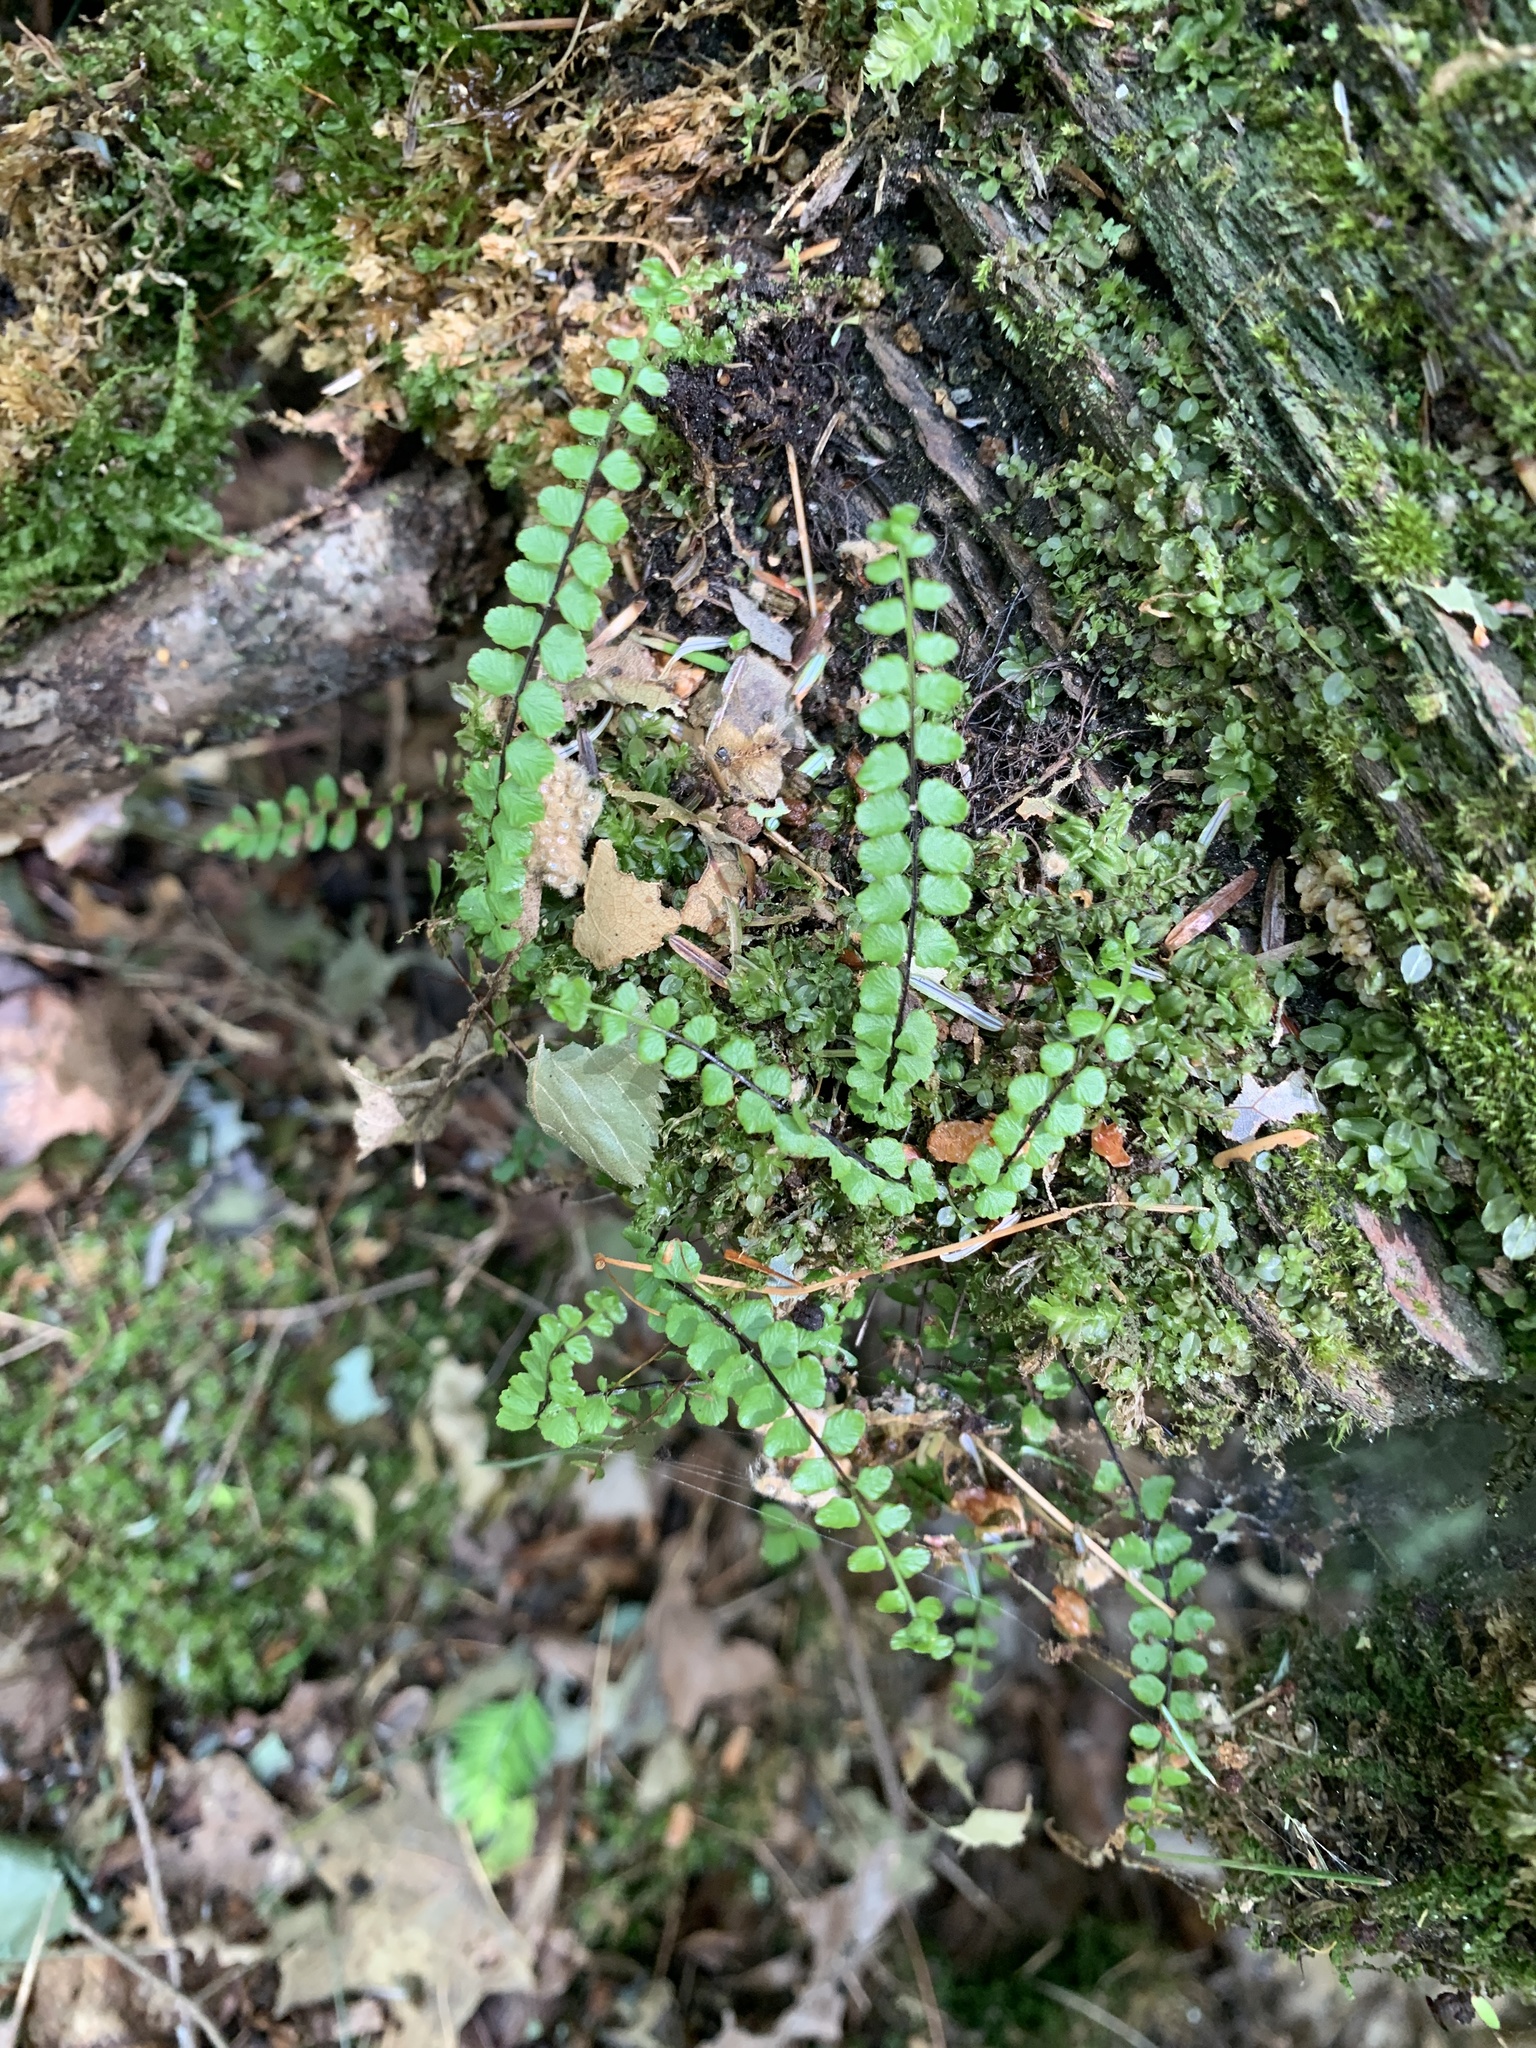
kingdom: Plantae
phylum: Tracheophyta
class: Polypodiopsida
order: Polypodiales
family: Aspleniaceae
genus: Asplenium
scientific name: Asplenium trichomanes
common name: Maidenhair spleenwort
